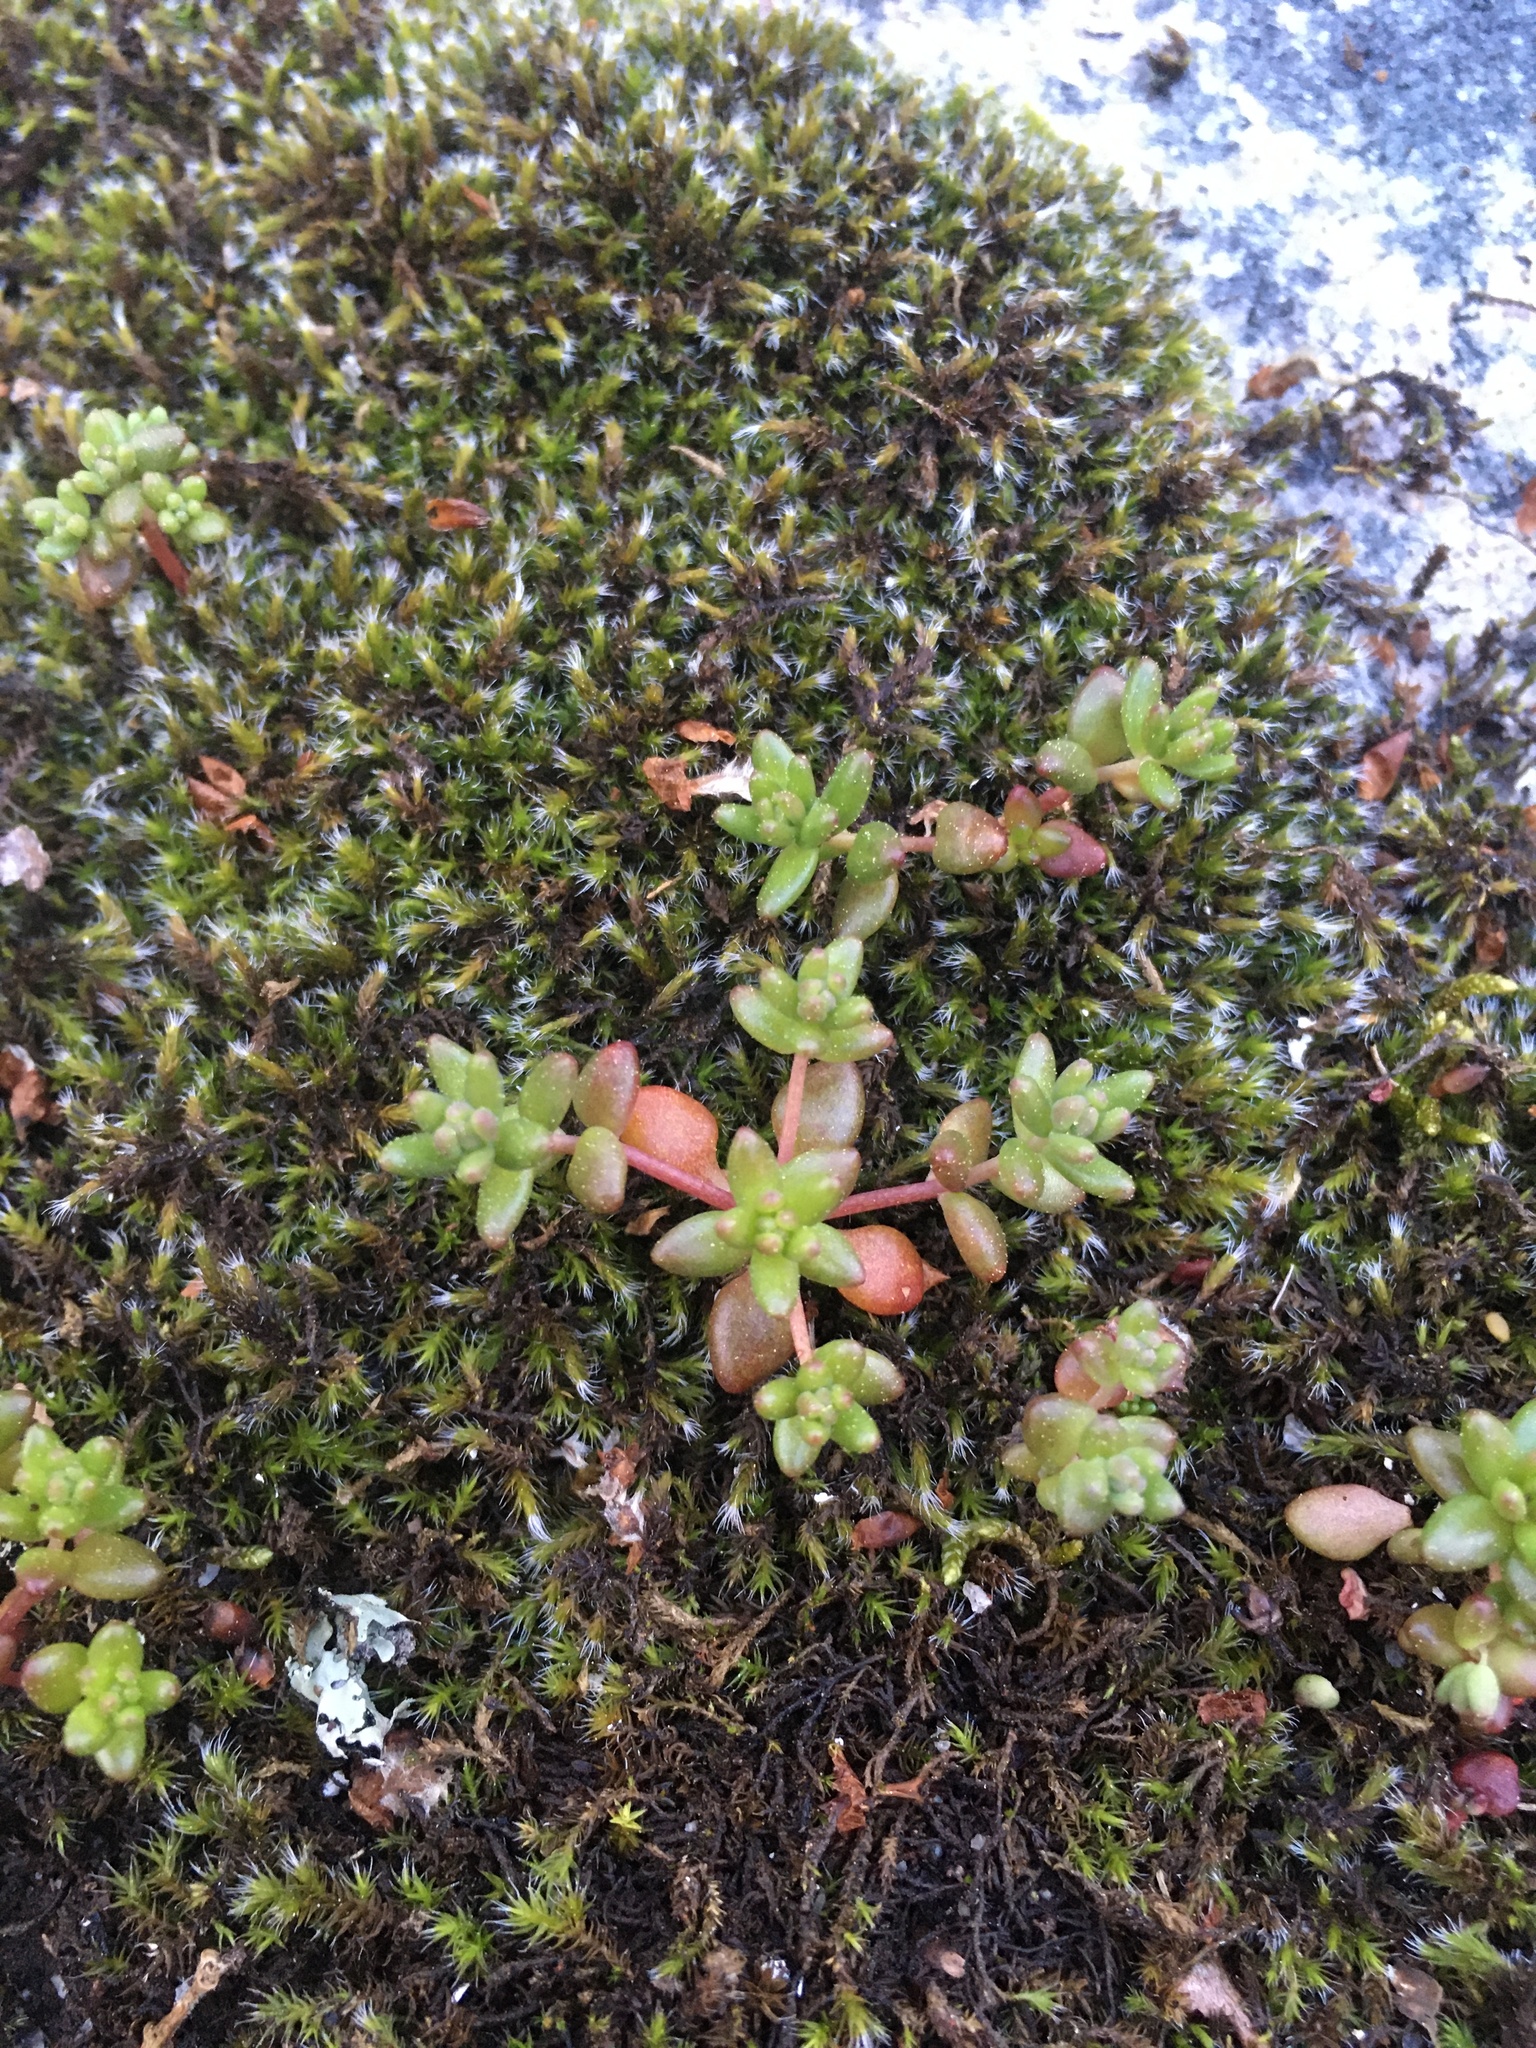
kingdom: Plantae
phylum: Tracheophyta
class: Magnoliopsida
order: Saxifragales
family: Crassulaceae
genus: Sedum
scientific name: Sedum smallii
